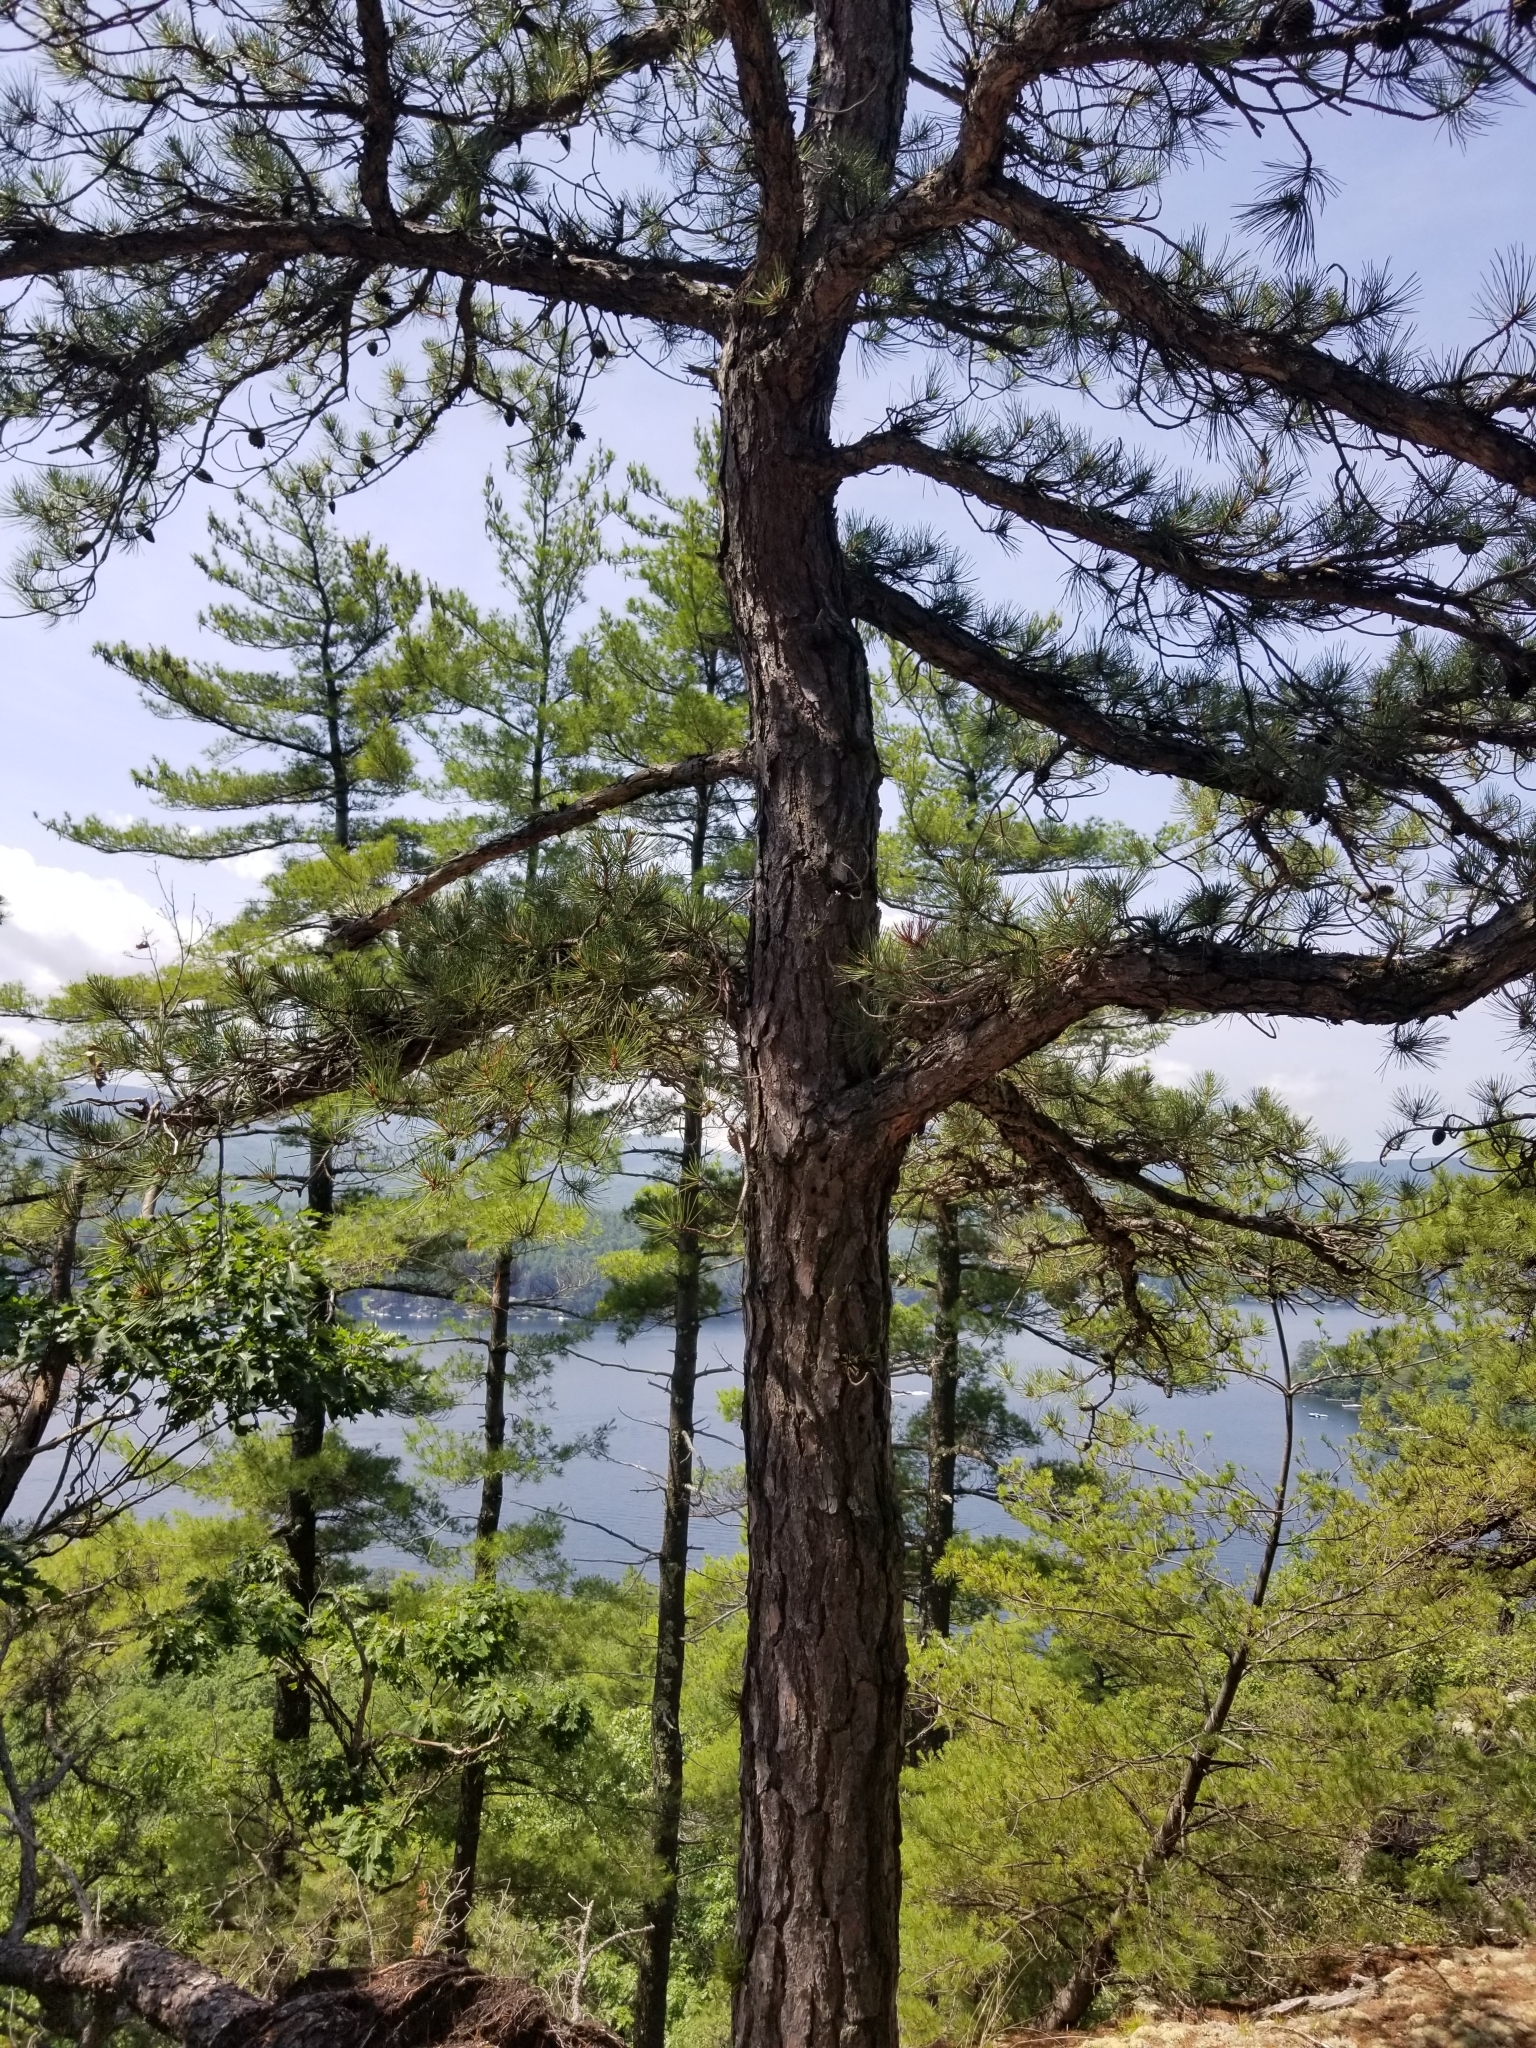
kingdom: Plantae
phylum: Tracheophyta
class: Pinopsida
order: Pinales
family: Pinaceae
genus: Pinus
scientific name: Pinus rigida
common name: Pitch pine
